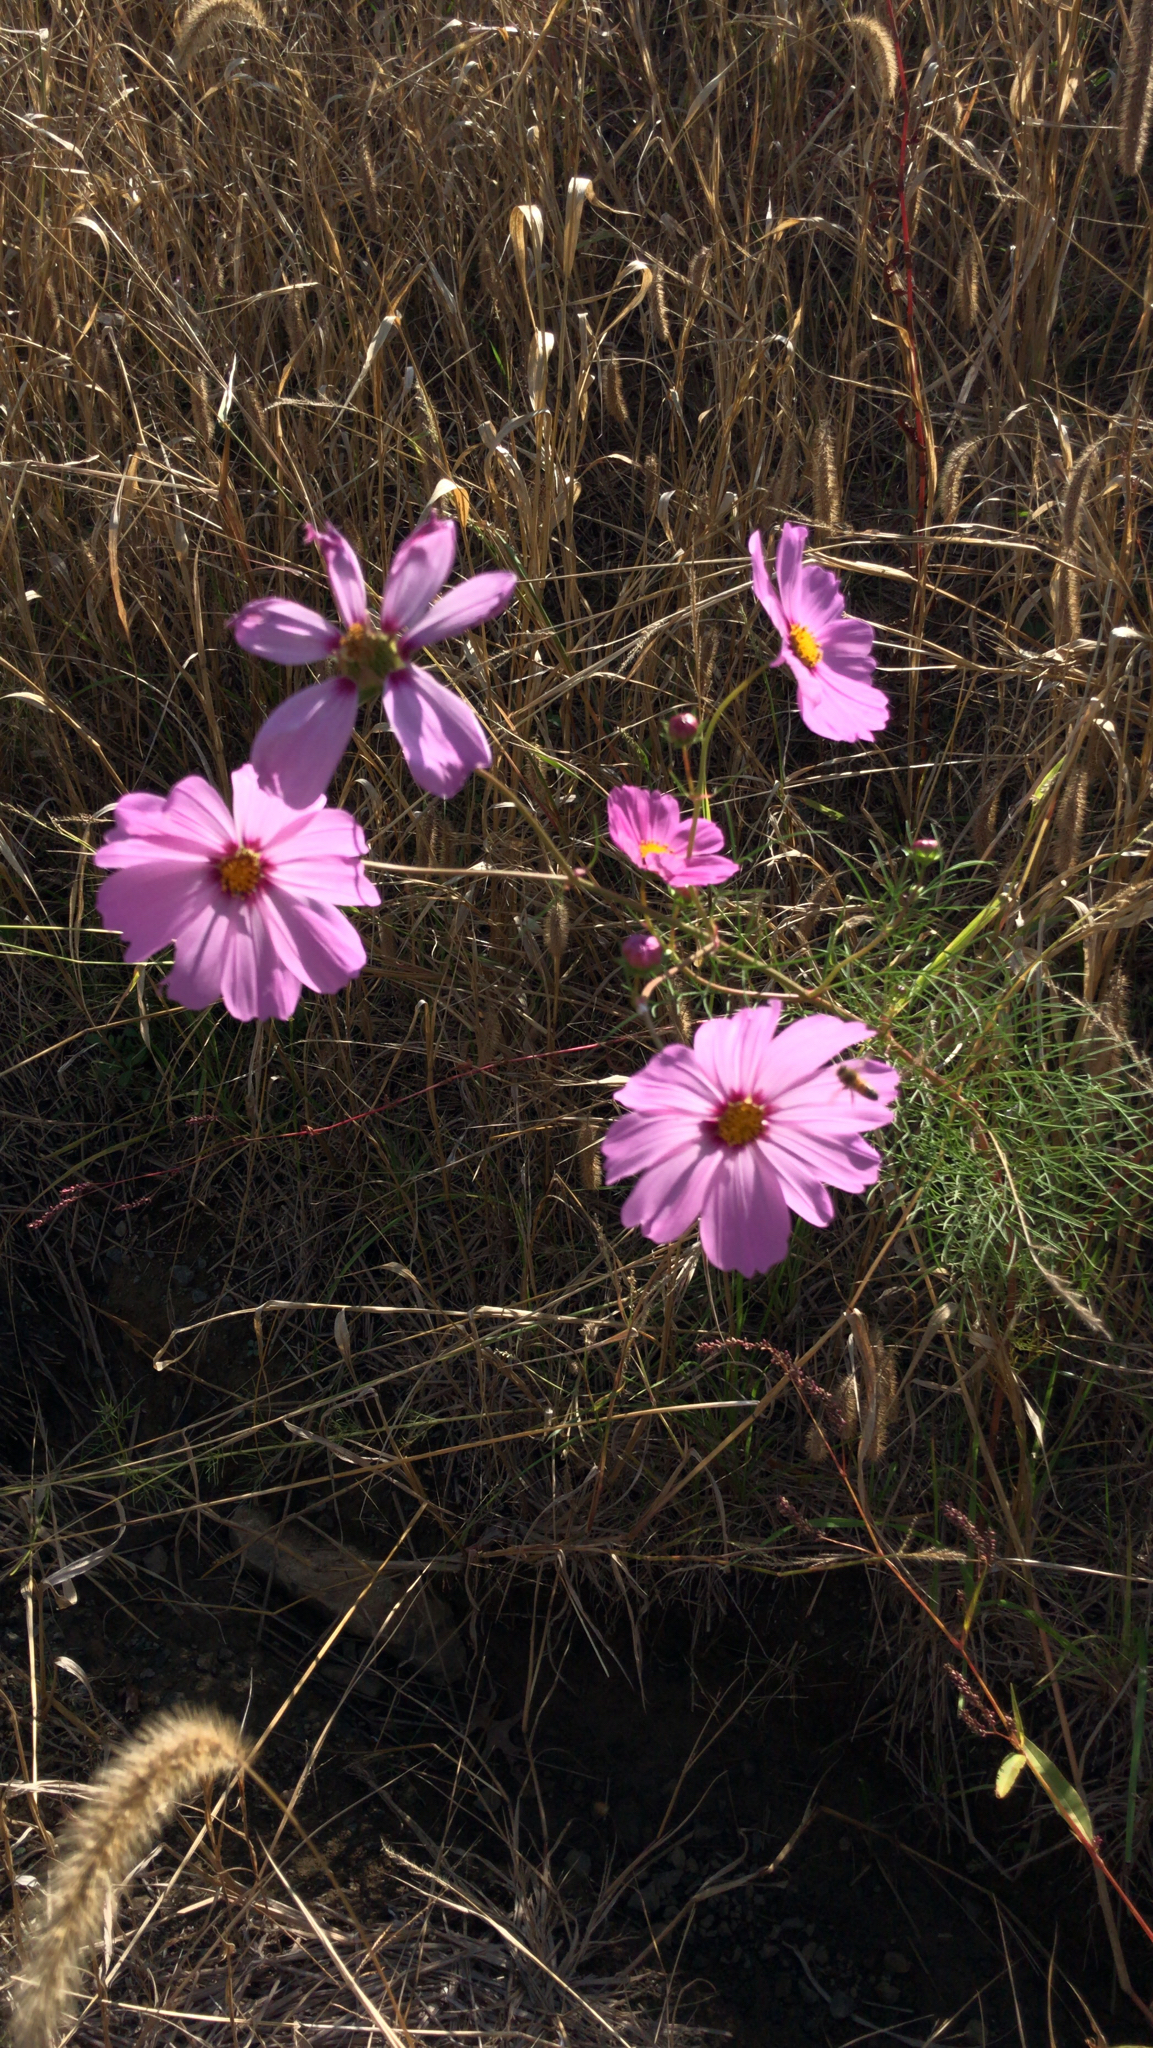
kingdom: Plantae
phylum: Tracheophyta
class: Magnoliopsida
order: Asterales
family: Asteraceae
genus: Cosmos
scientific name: Cosmos bipinnatus
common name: Garden cosmos
